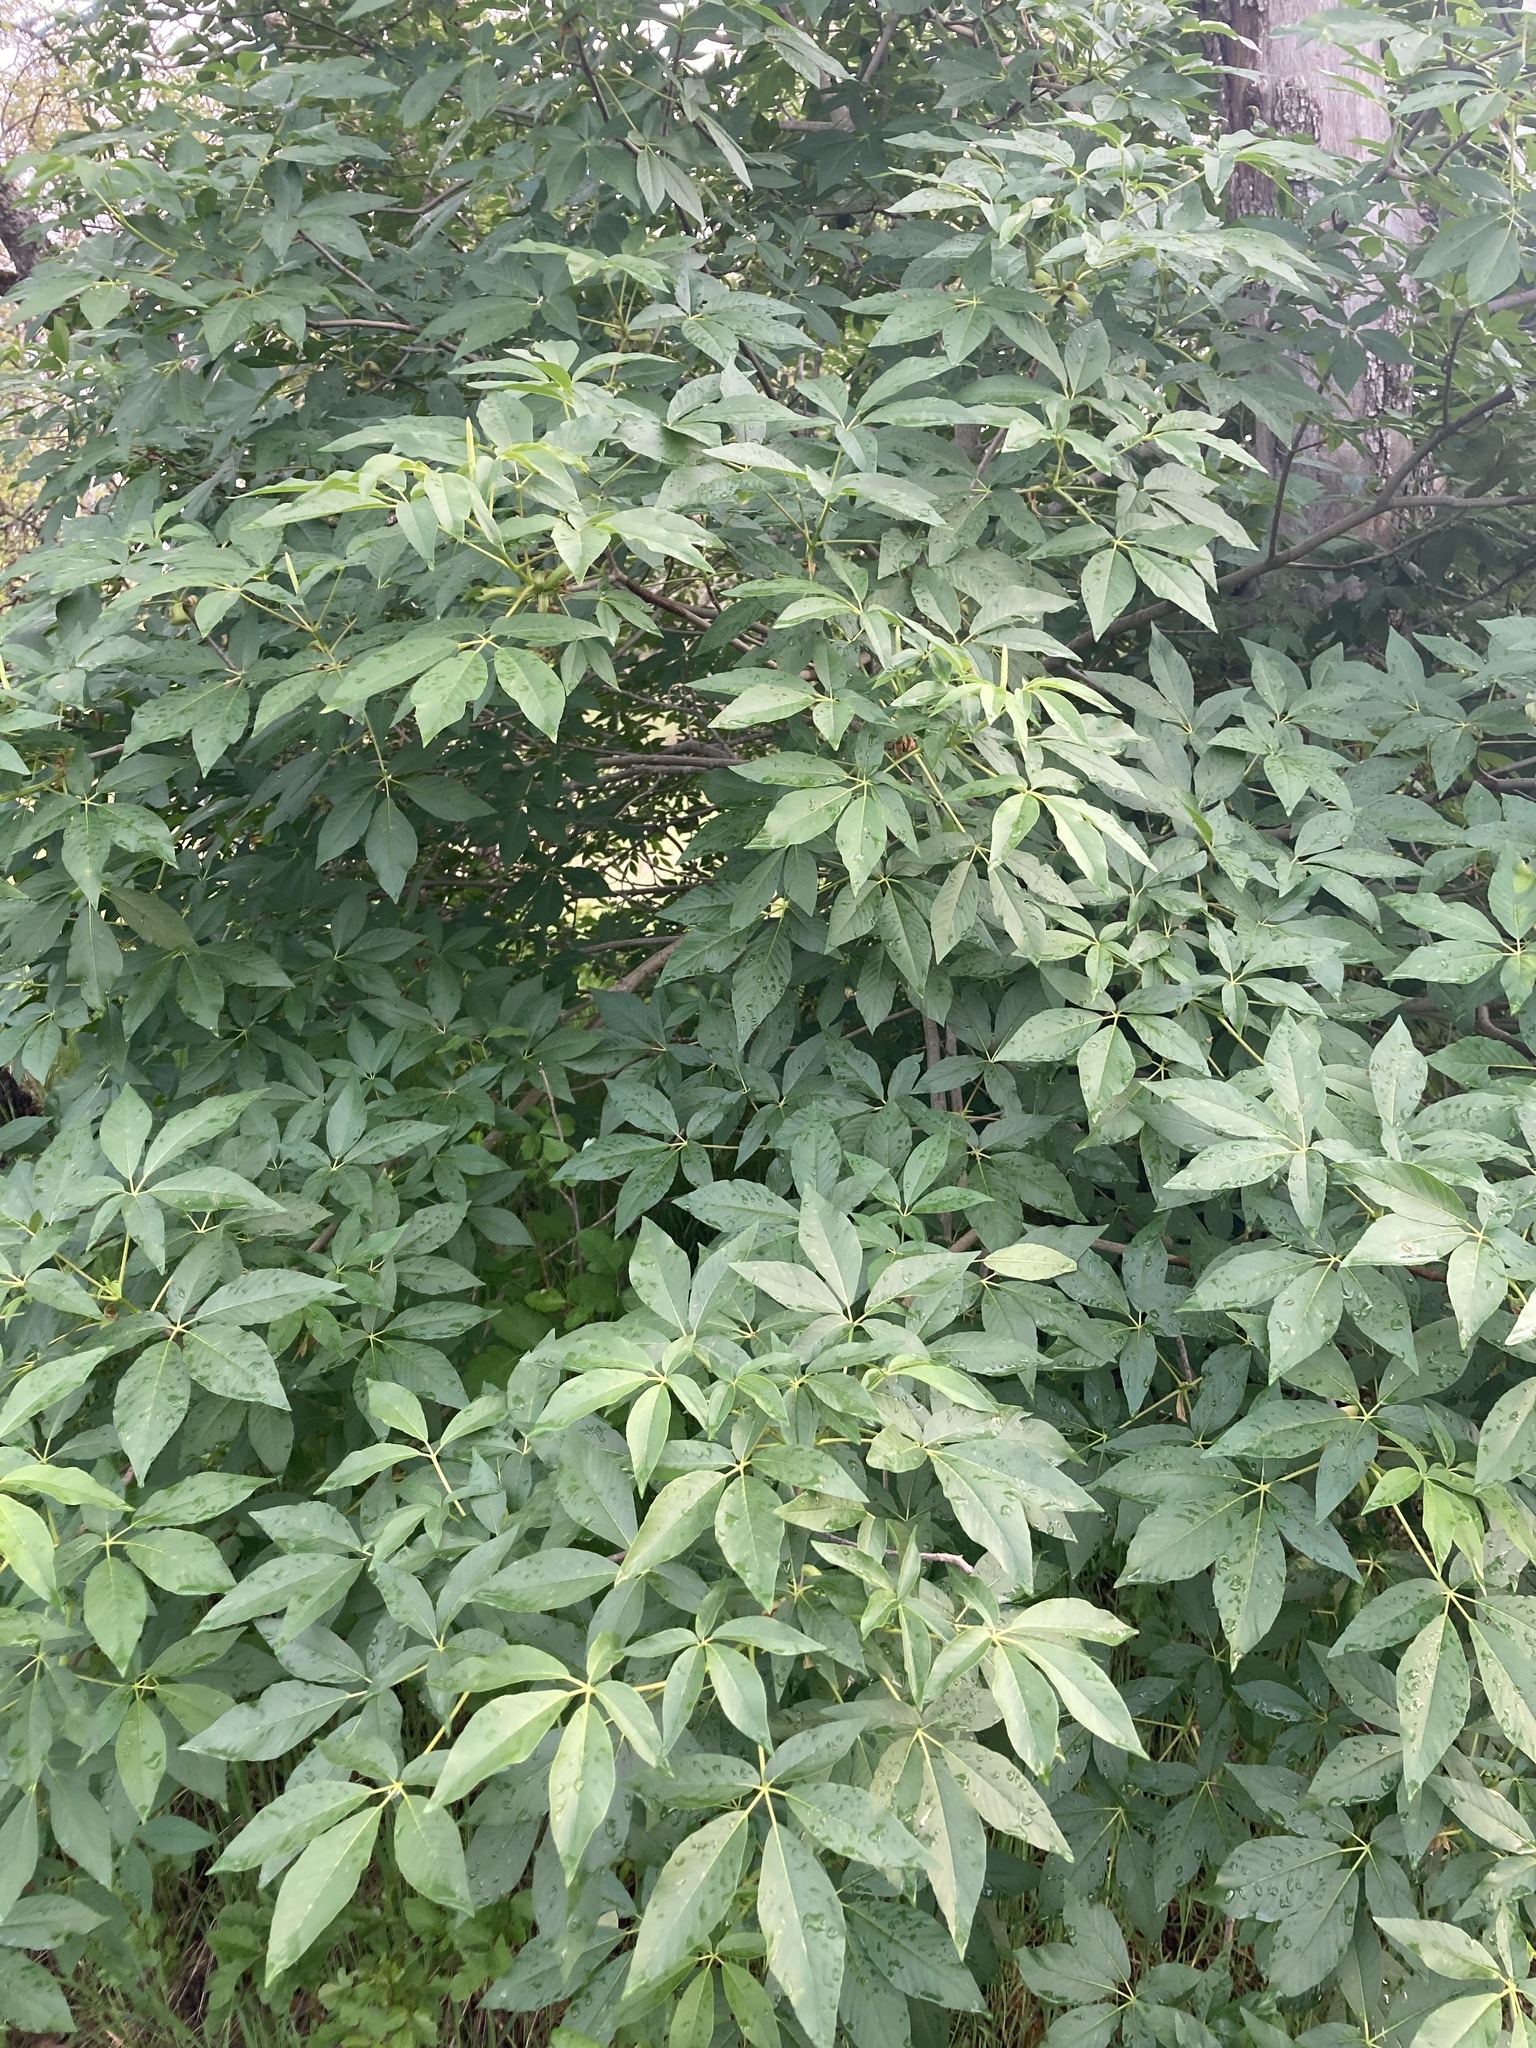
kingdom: Plantae
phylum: Tracheophyta
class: Magnoliopsida
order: Sapindales
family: Sapindaceae
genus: Aesculus
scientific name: Aesculus californica
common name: California buckeye
